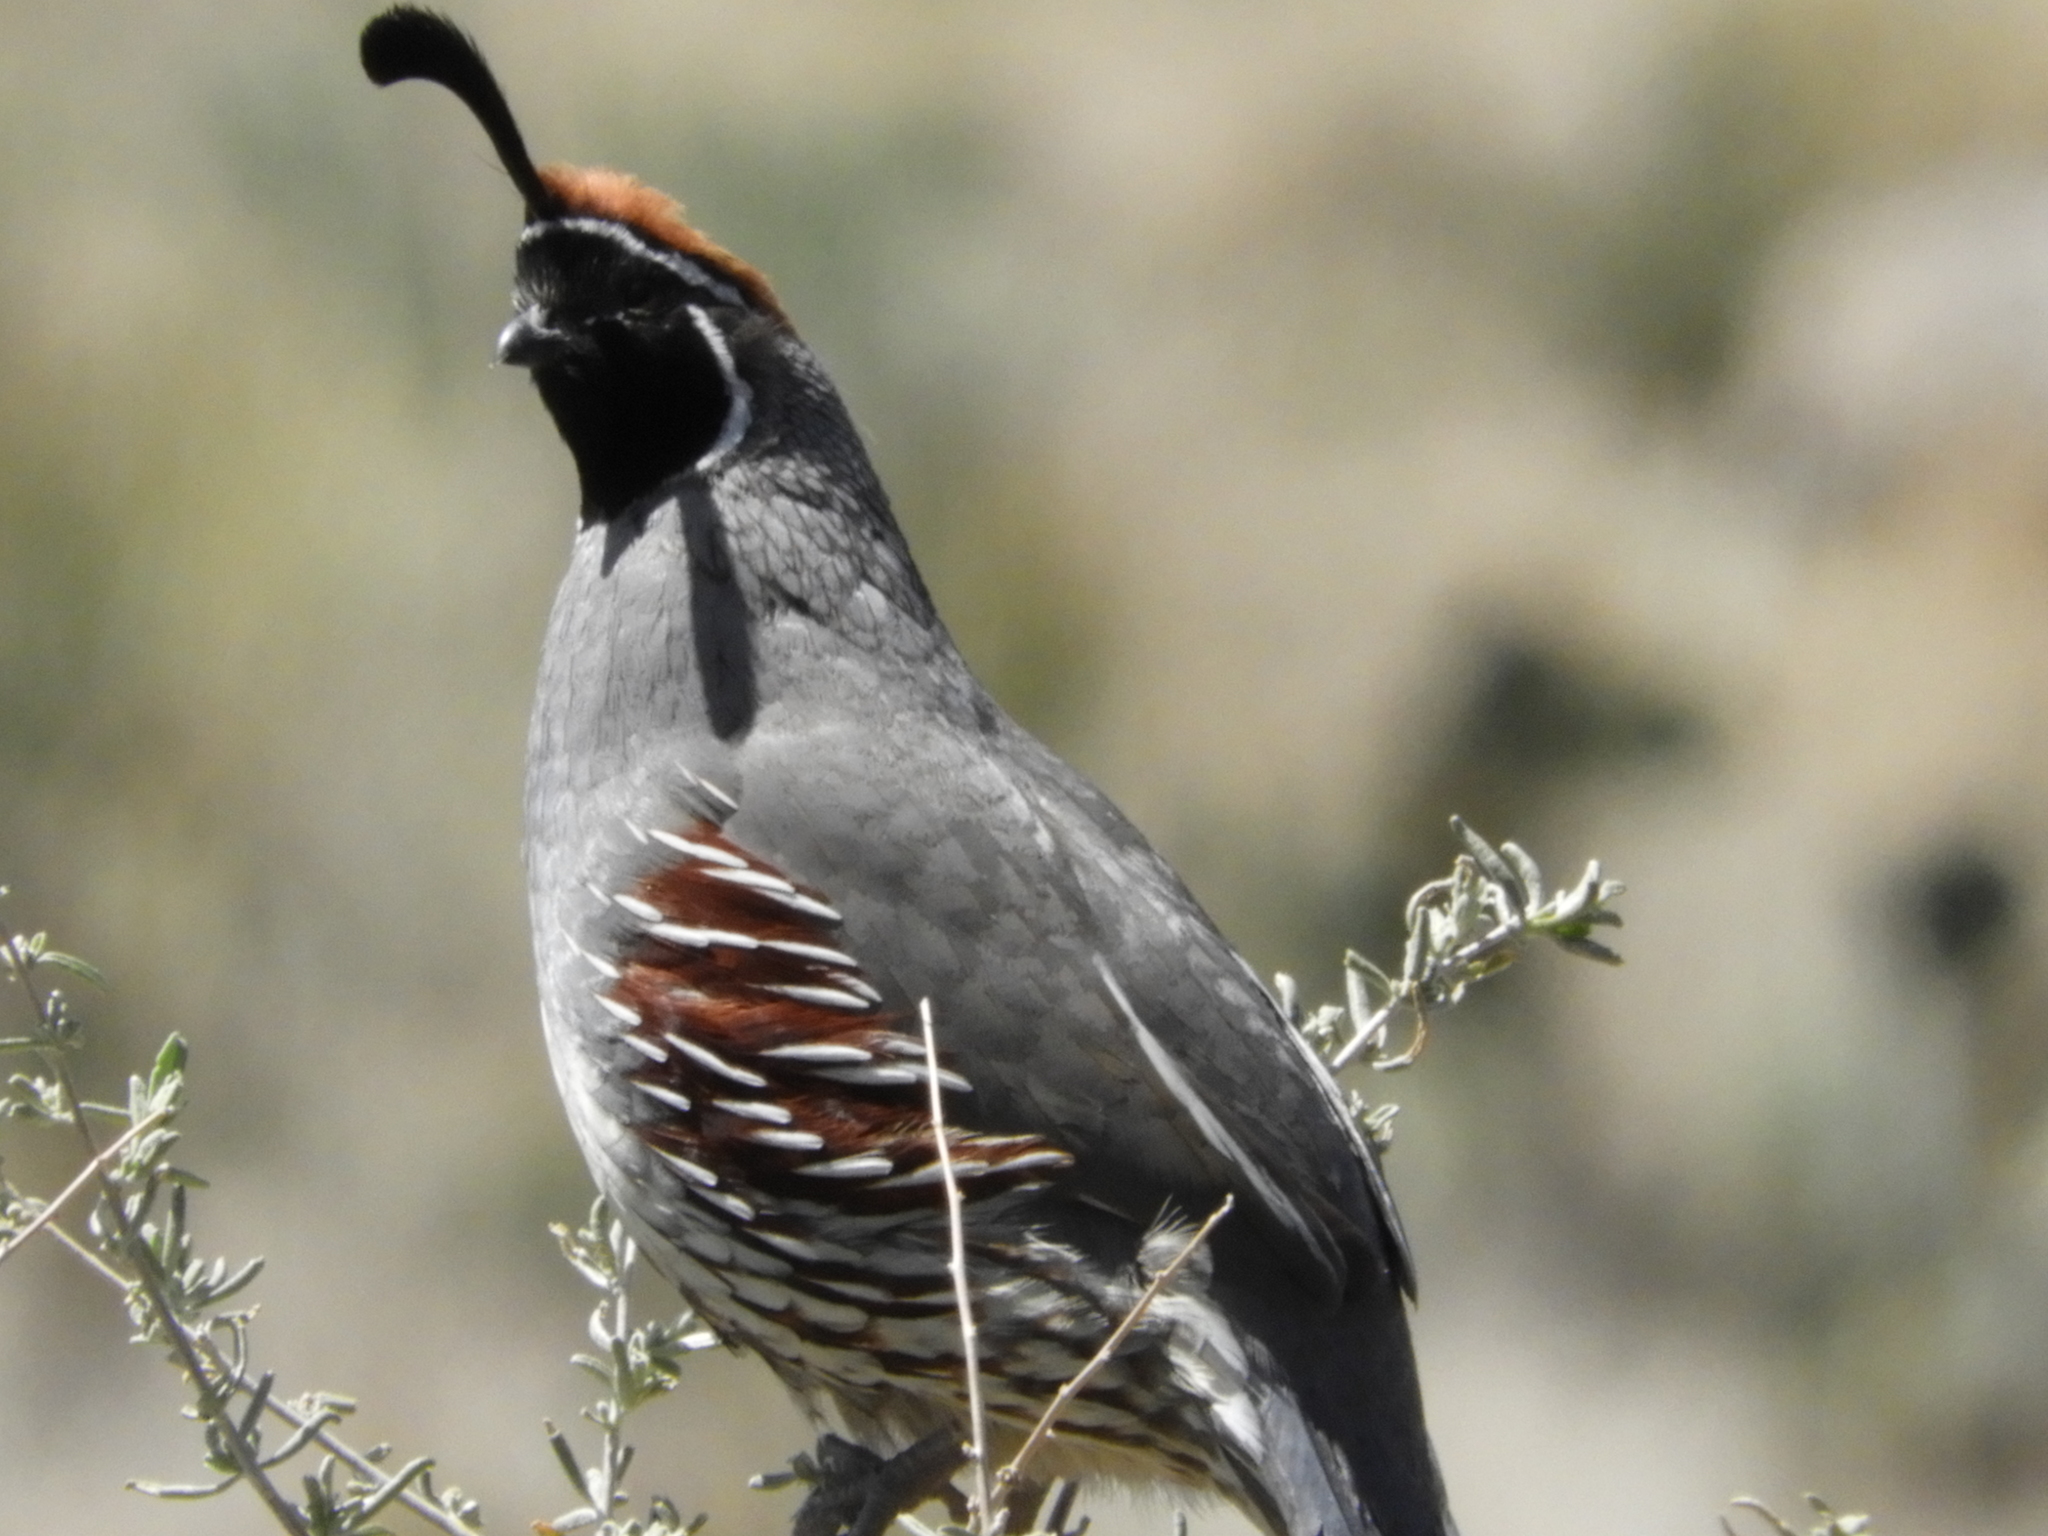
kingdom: Animalia
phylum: Chordata
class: Aves
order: Galliformes
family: Odontophoridae
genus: Callipepla
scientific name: Callipepla gambelii
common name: Gambel's quail
